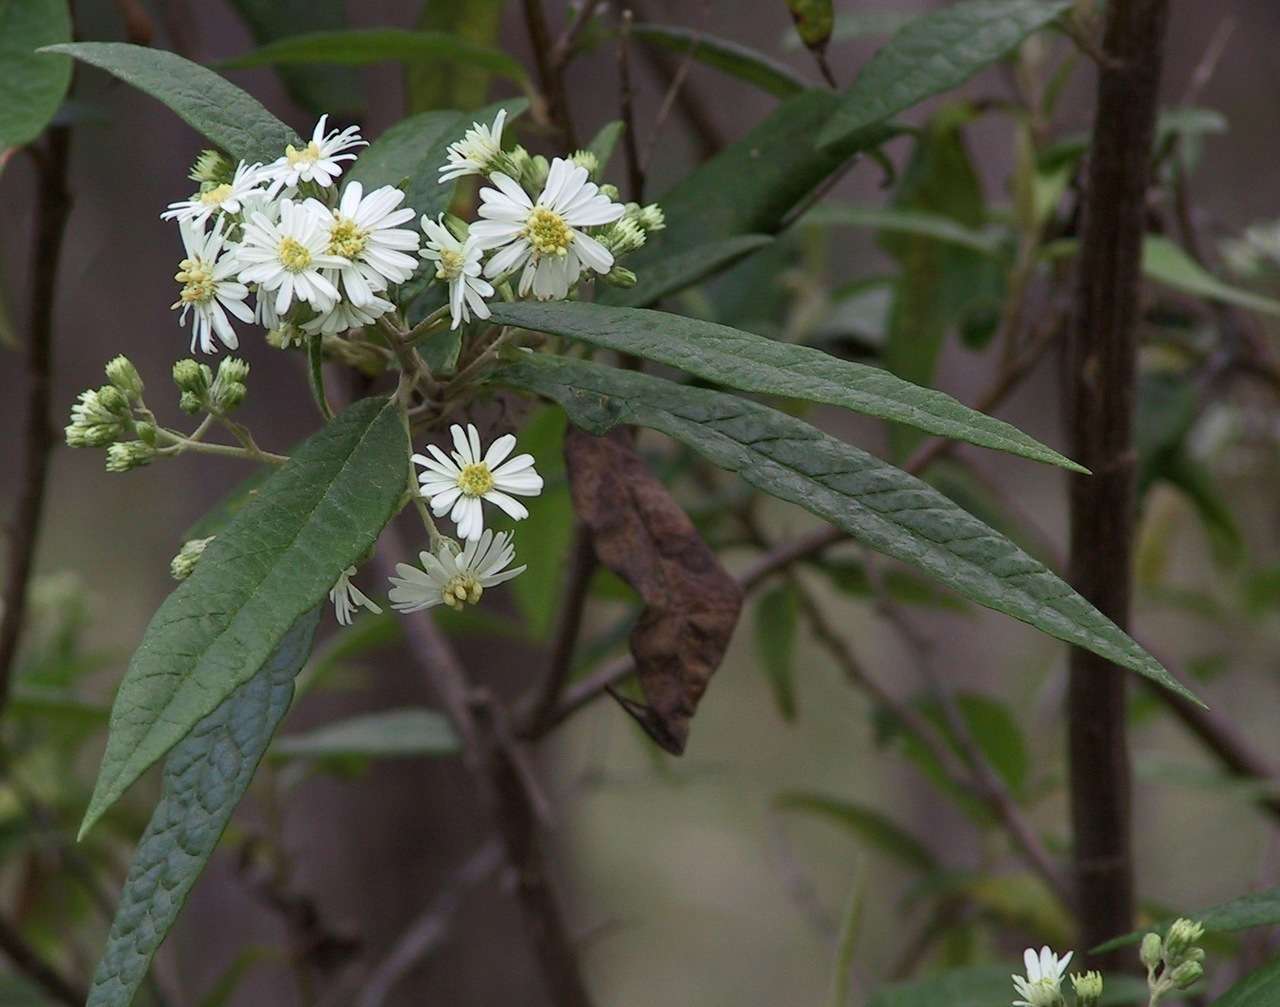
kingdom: Plantae
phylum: Tracheophyta
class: Magnoliopsida
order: Asterales
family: Asteraceae
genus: Olearia
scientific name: Olearia lirata
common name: Dusty daisybush
